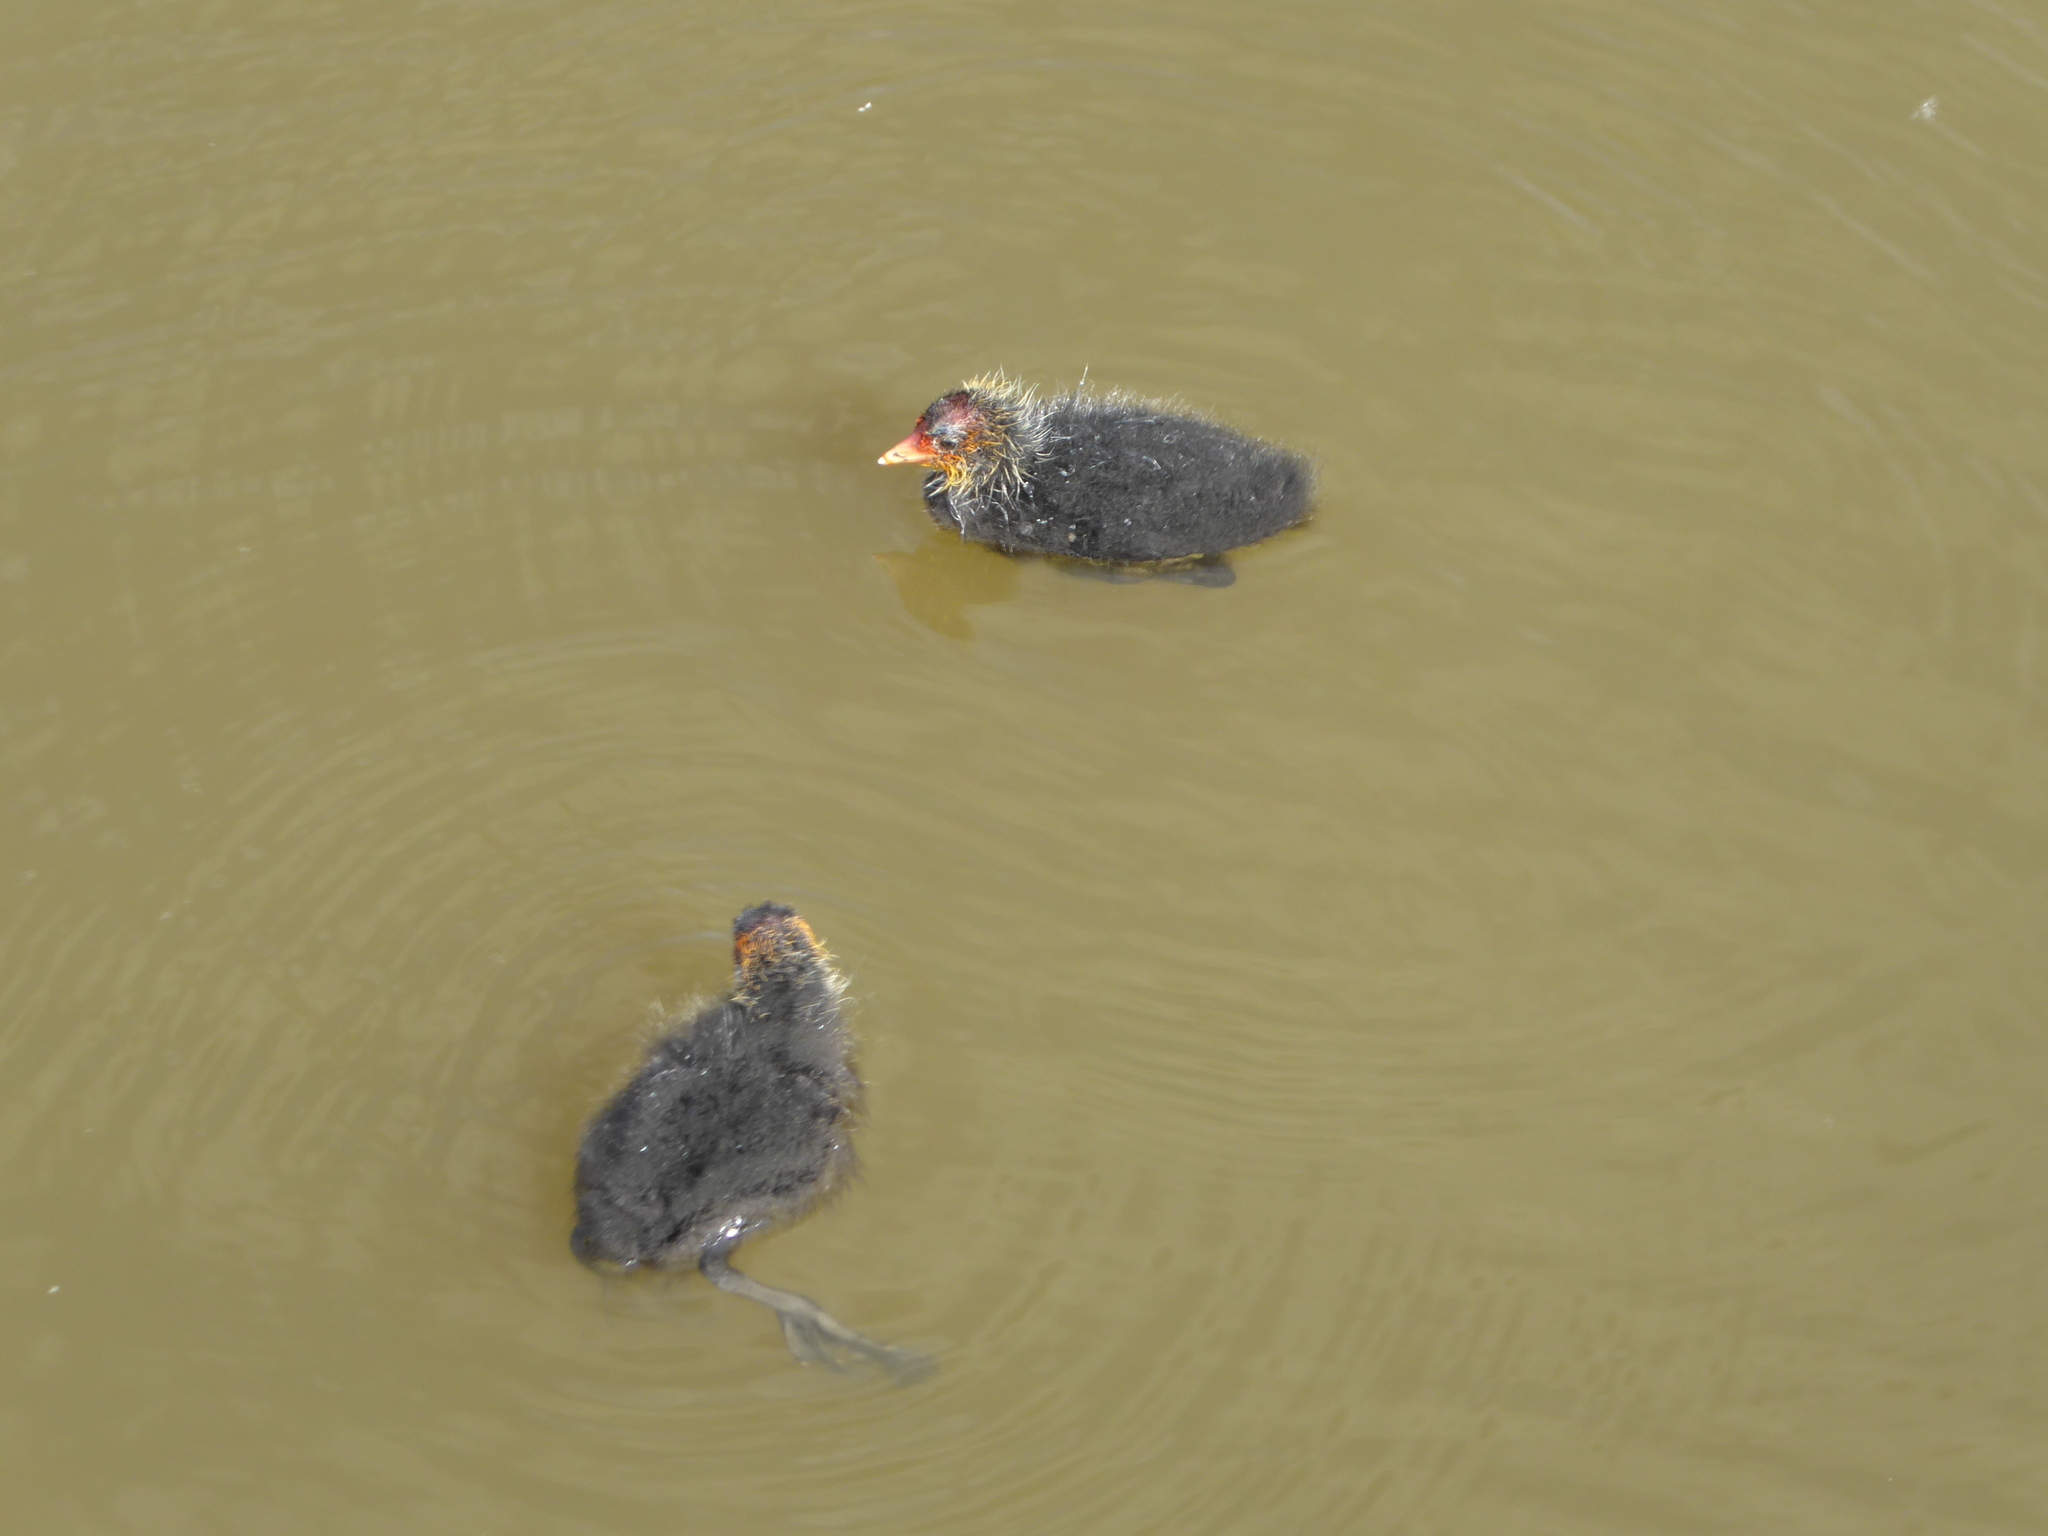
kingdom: Animalia
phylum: Chordata
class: Aves
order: Gruiformes
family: Rallidae
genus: Fulica
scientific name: Fulica atra
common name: Eurasian coot
